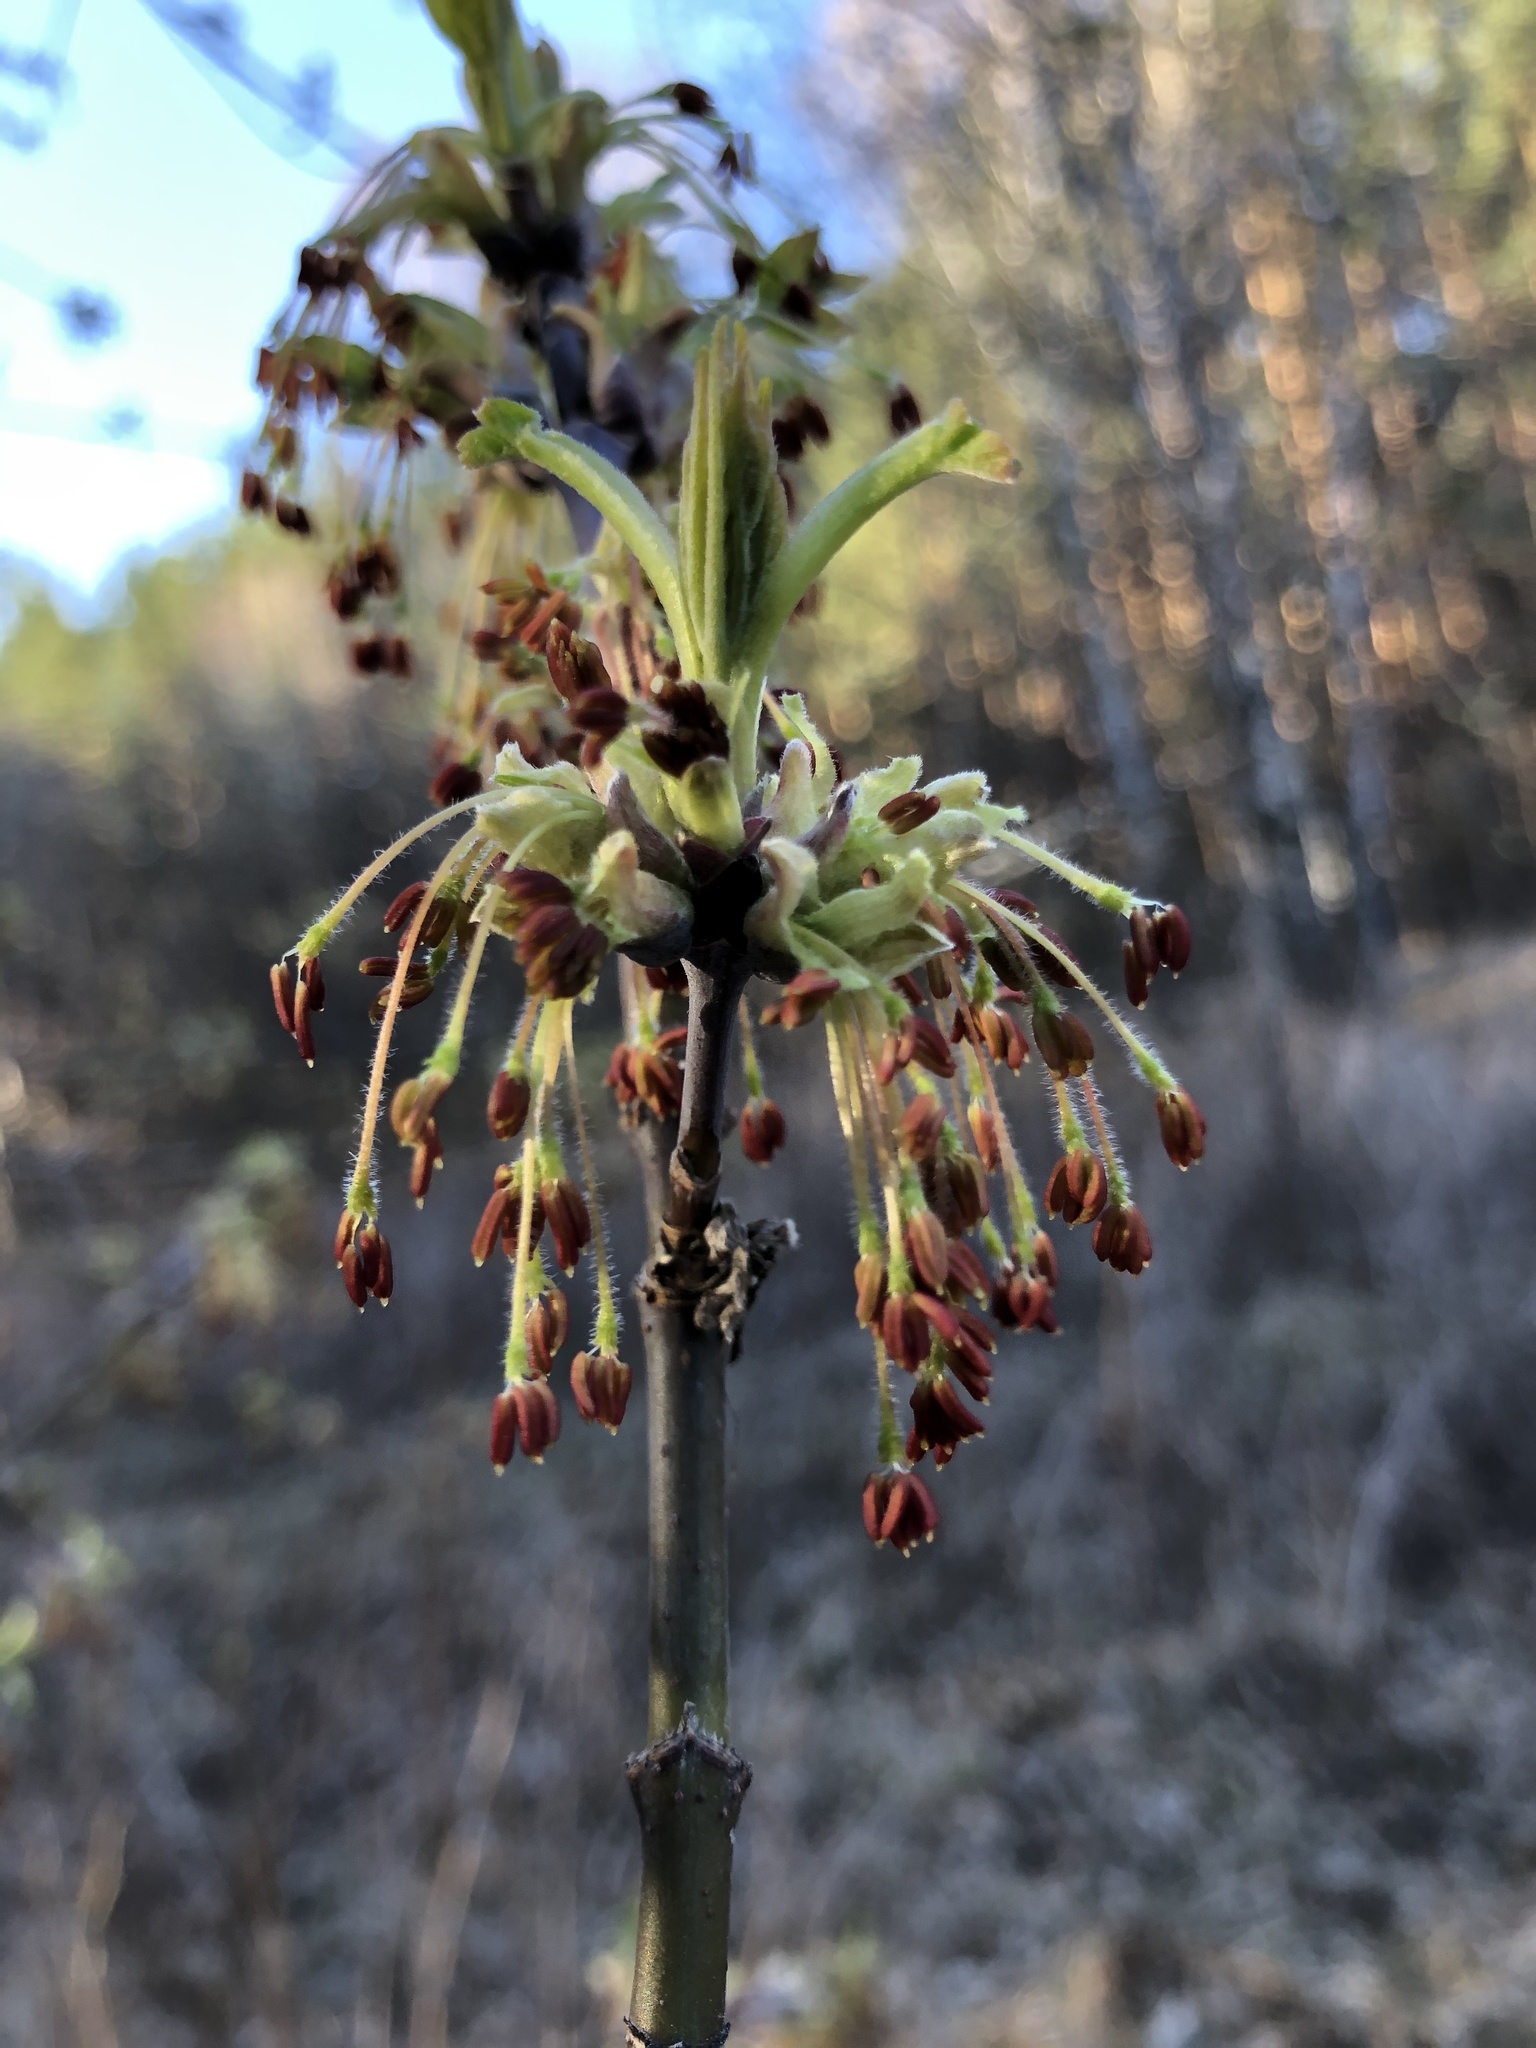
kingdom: Plantae
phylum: Tracheophyta
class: Magnoliopsida
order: Sapindales
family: Sapindaceae
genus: Acer
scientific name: Acer negundo
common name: Ashleaf maple
